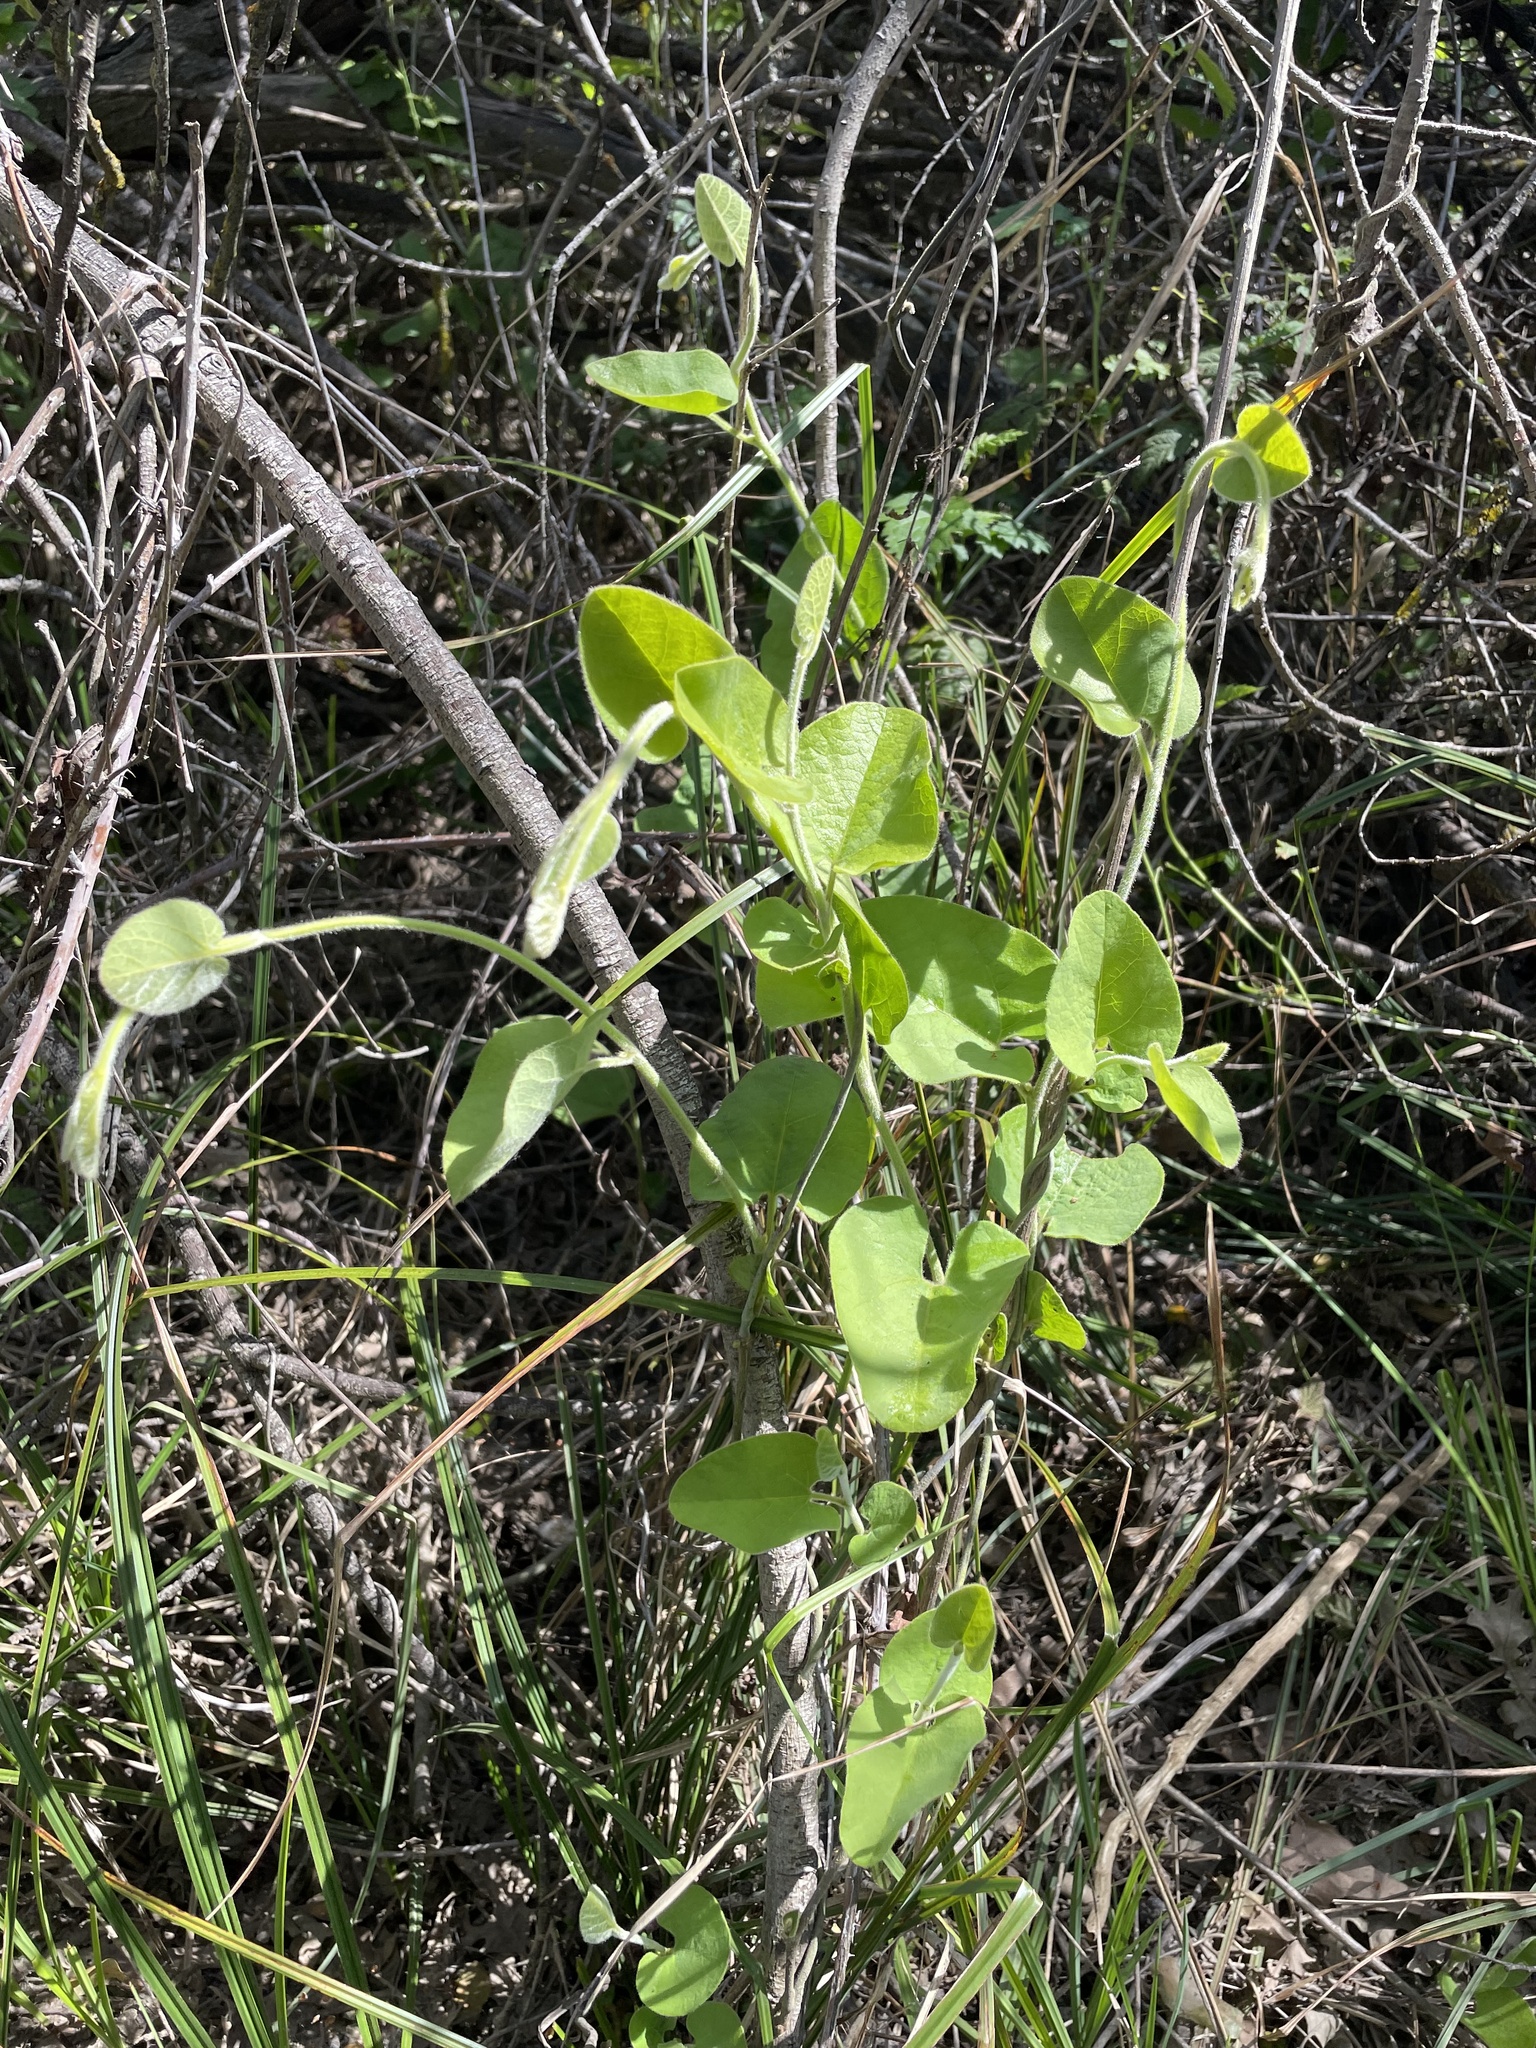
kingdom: Plantae
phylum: Tracheophyta
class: Magnoliopsida
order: Piperales
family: Aristolochiaceae
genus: Isotrema
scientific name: Isotrema californicum
